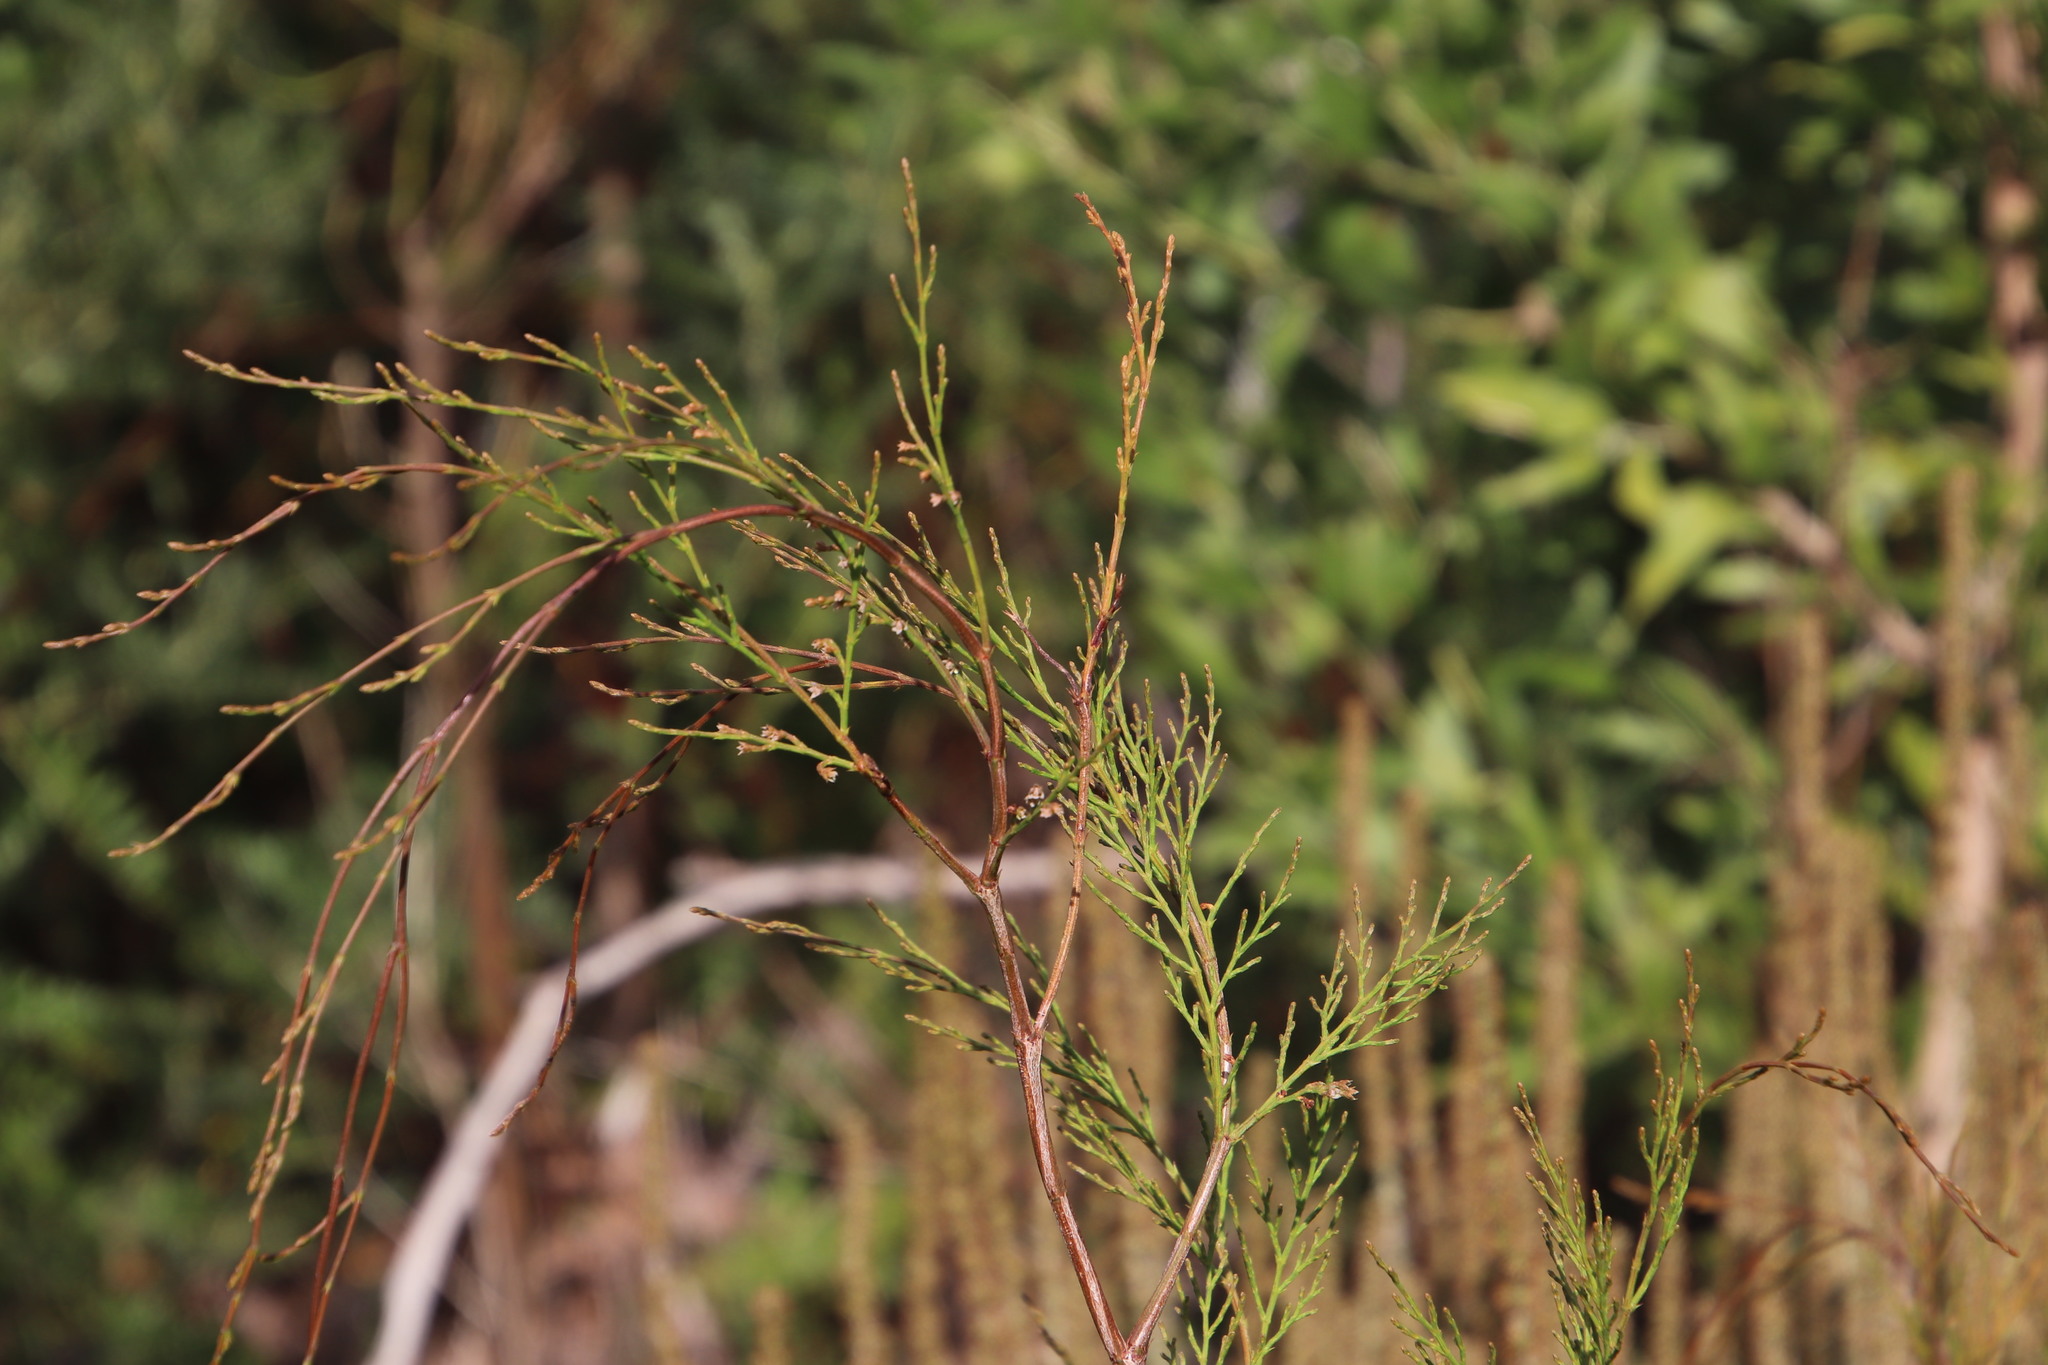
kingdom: Plantae
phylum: Tracheophyta
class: Pinopsida
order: Pinales
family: Cupressaceae
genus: Callitris
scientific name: Callitris rhomboidea
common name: Illawara mountain pine
